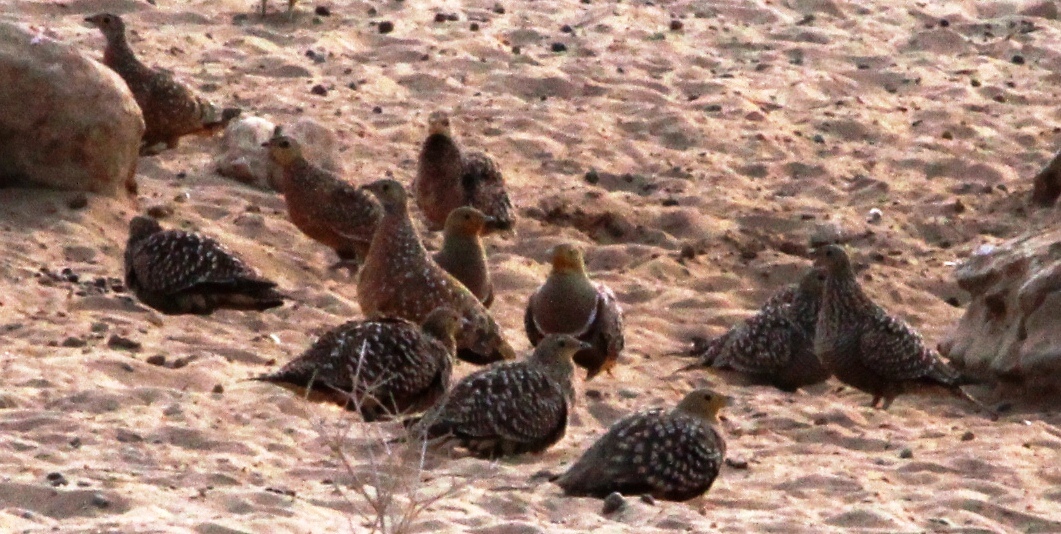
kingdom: Animalia
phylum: Chordata
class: Aves
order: Pteroclidiformes
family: Pteroclididae
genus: Pterocles
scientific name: Pterocles namaqua
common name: Namaqua sandgrouse
